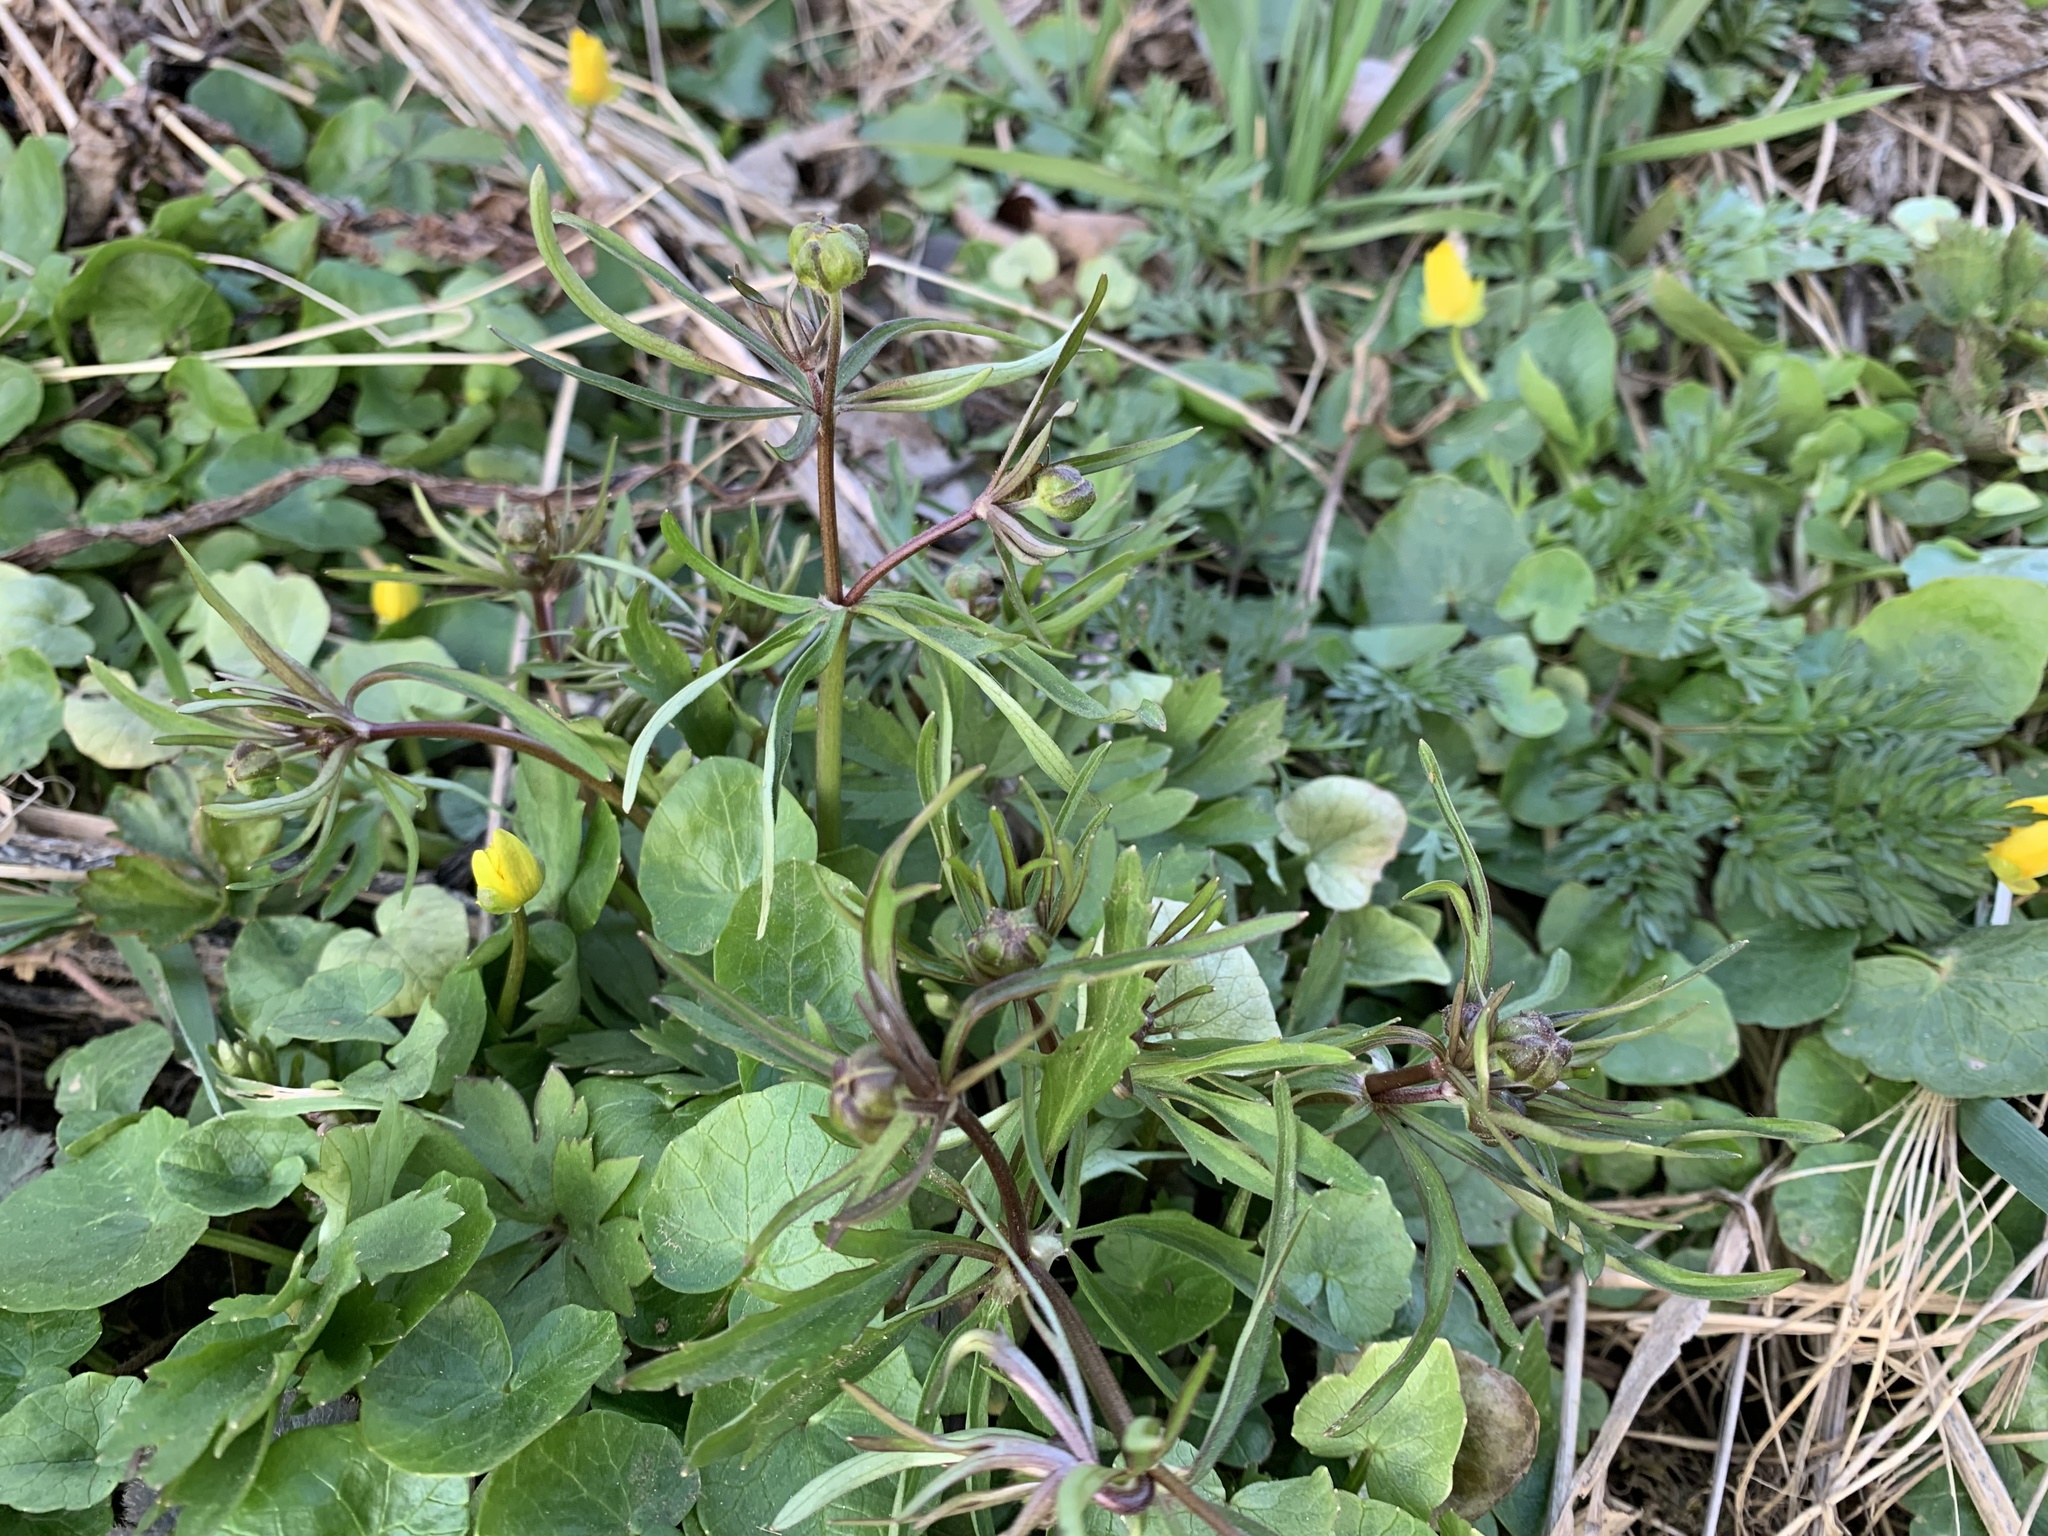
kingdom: Plantae
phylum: Tracheophyta
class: Magnoliopsida
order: Ranunculales
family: Ranunculaceae
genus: Ranunculus
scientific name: Ranunculus auricomus
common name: Goldilocks buttercup
